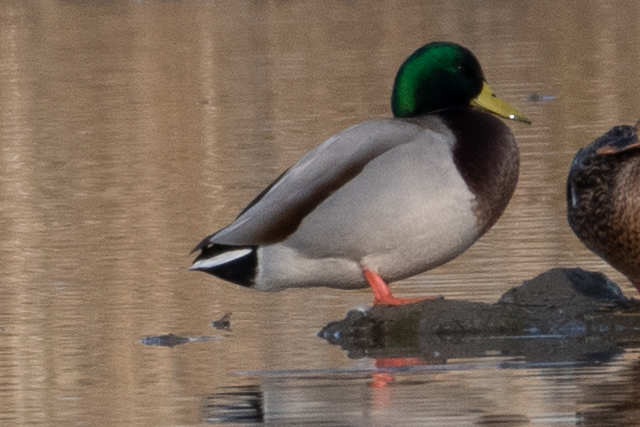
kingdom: Animalia
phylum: Chordata
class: Aves
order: Anseriformes
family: Anatidae
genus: Anas
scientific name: Anas platyrhynchos
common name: Mallard
